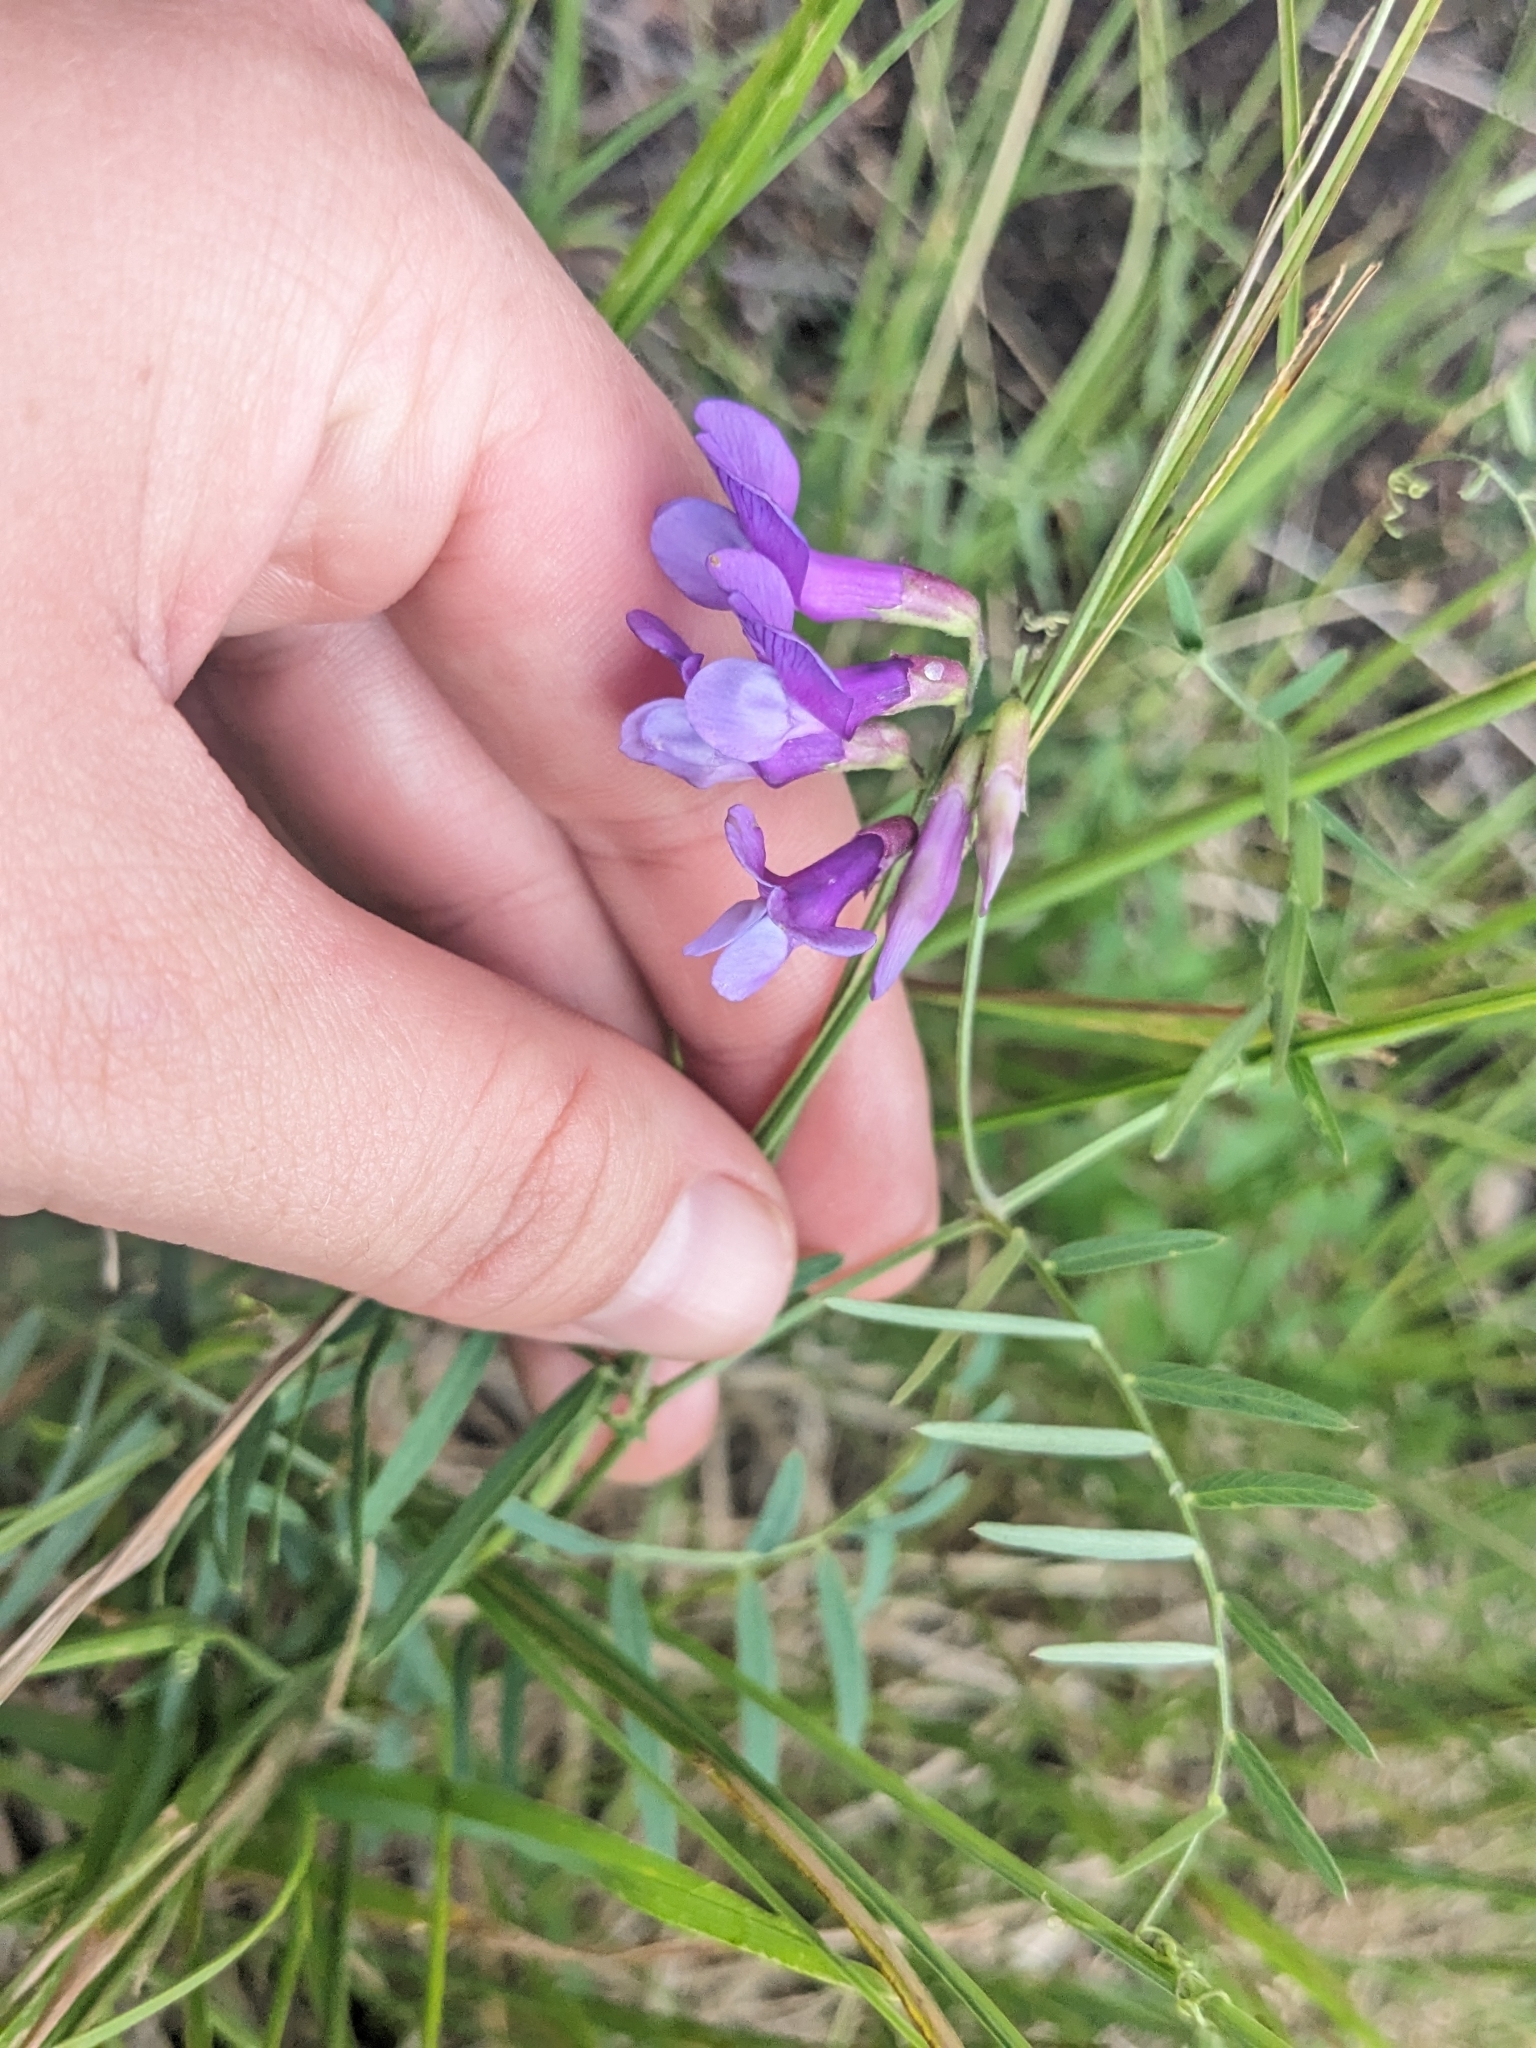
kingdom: Plantae
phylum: Tracheophyta
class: Magnoliopsida
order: Fabales
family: Fabaceae
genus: Vicia
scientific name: Vicia americana
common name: American vetch
